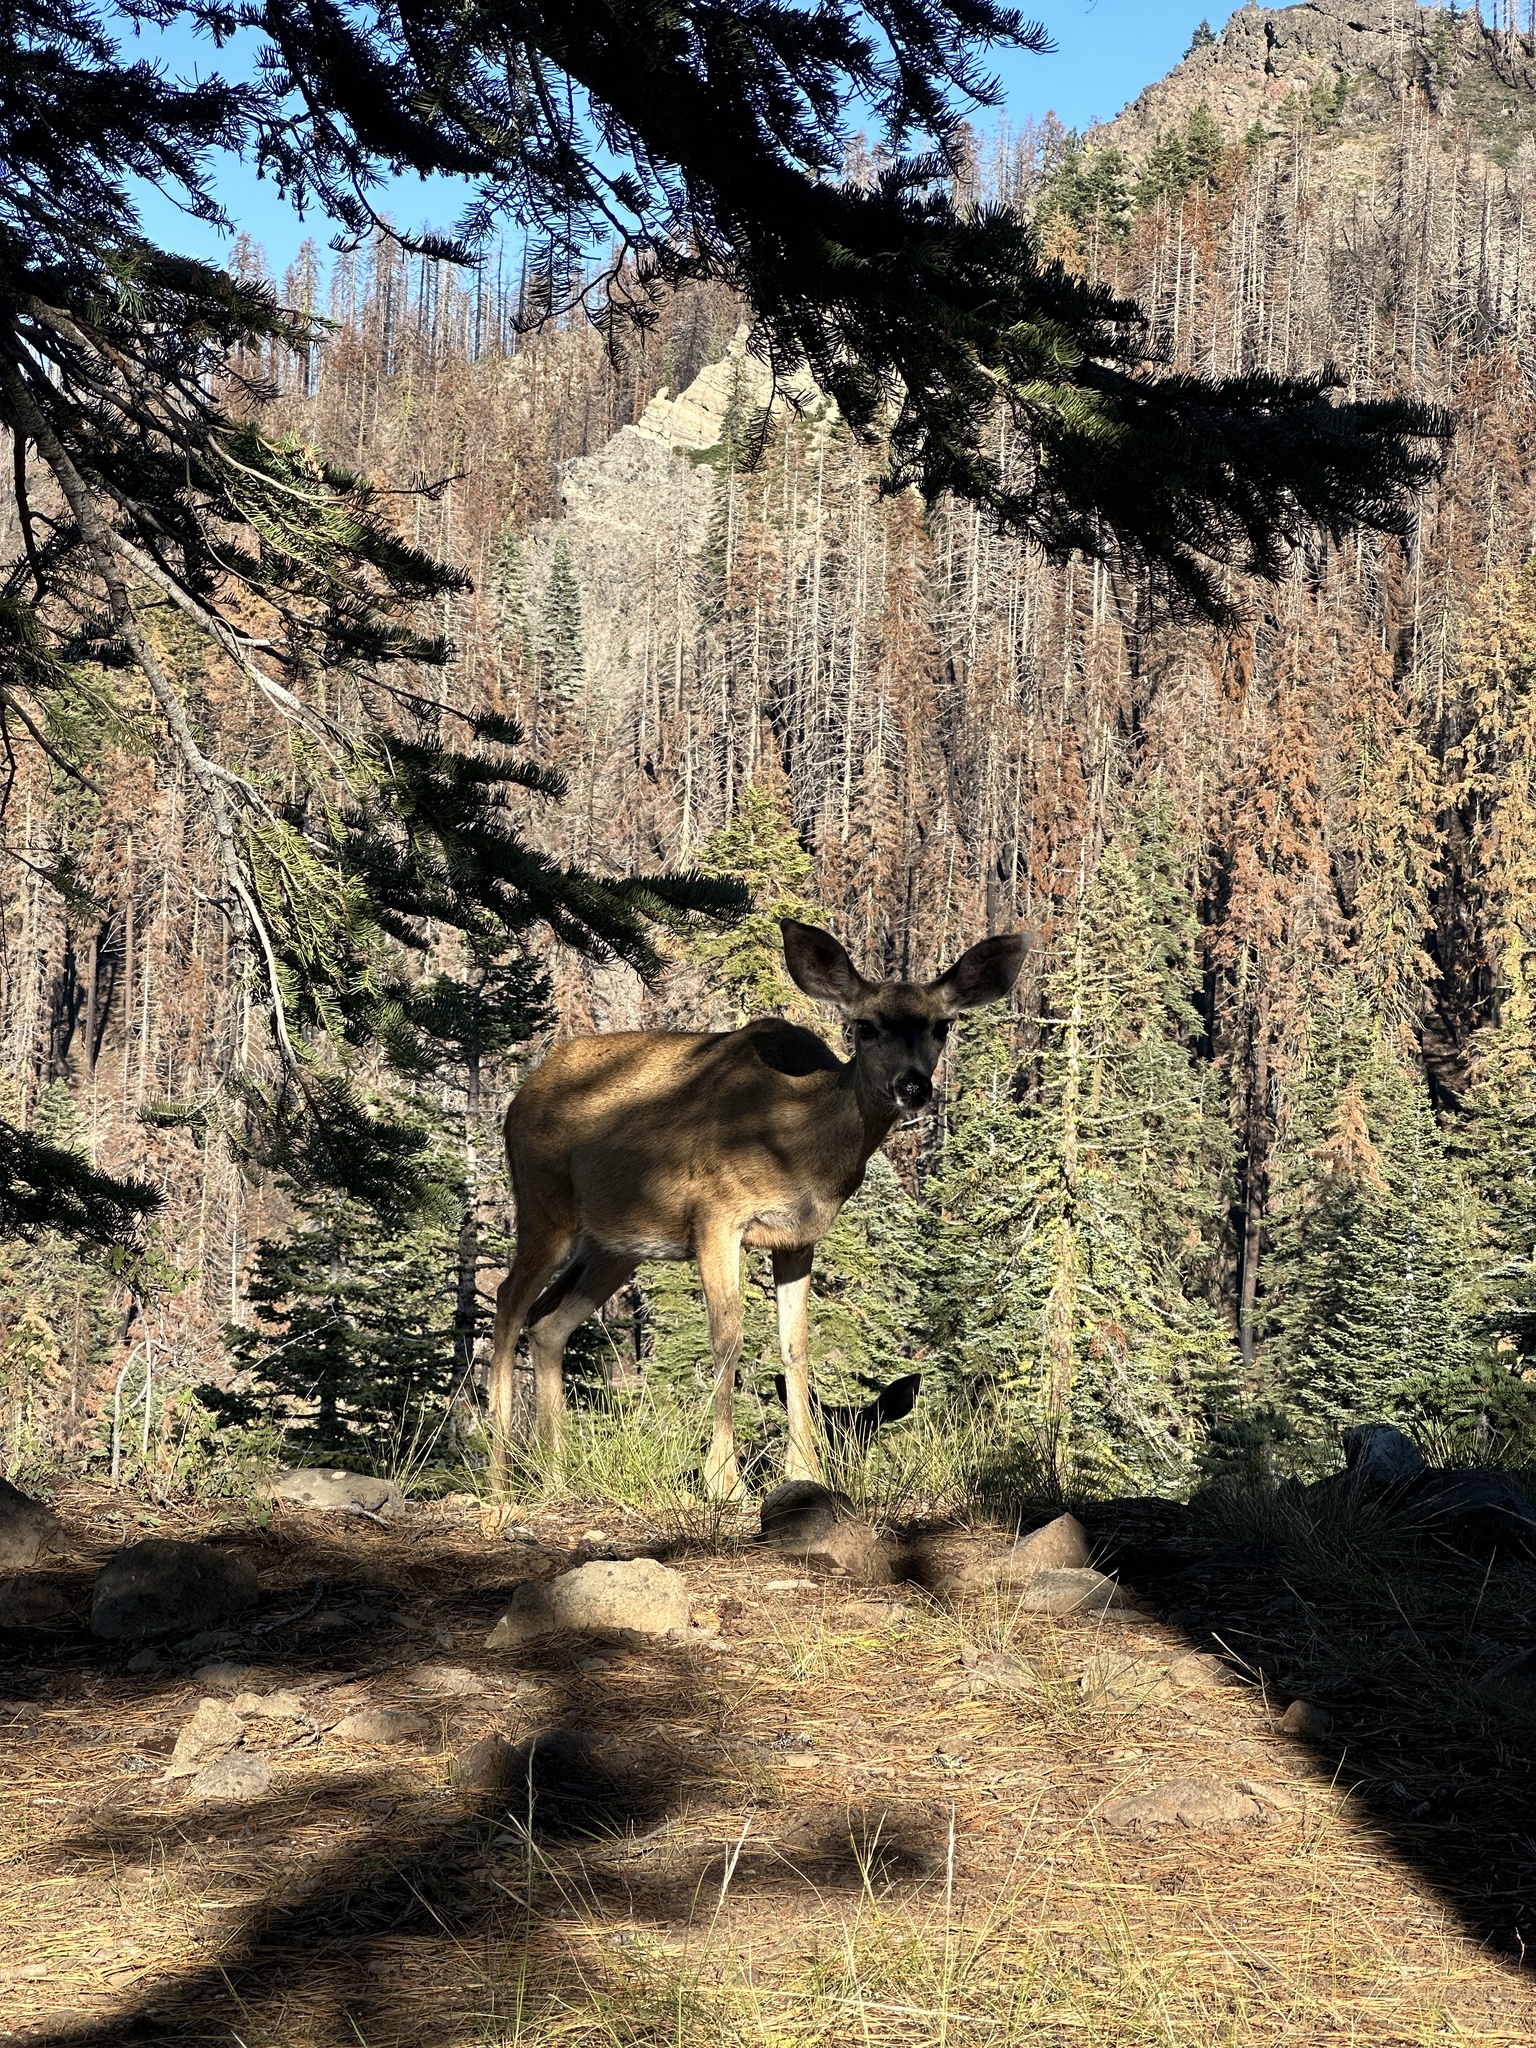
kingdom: Animalia
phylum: Chordata
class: Mammalia
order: Artiodactyla
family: Cervidae
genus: Odocoileus
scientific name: Odocoileus hemionus
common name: Mule deer
